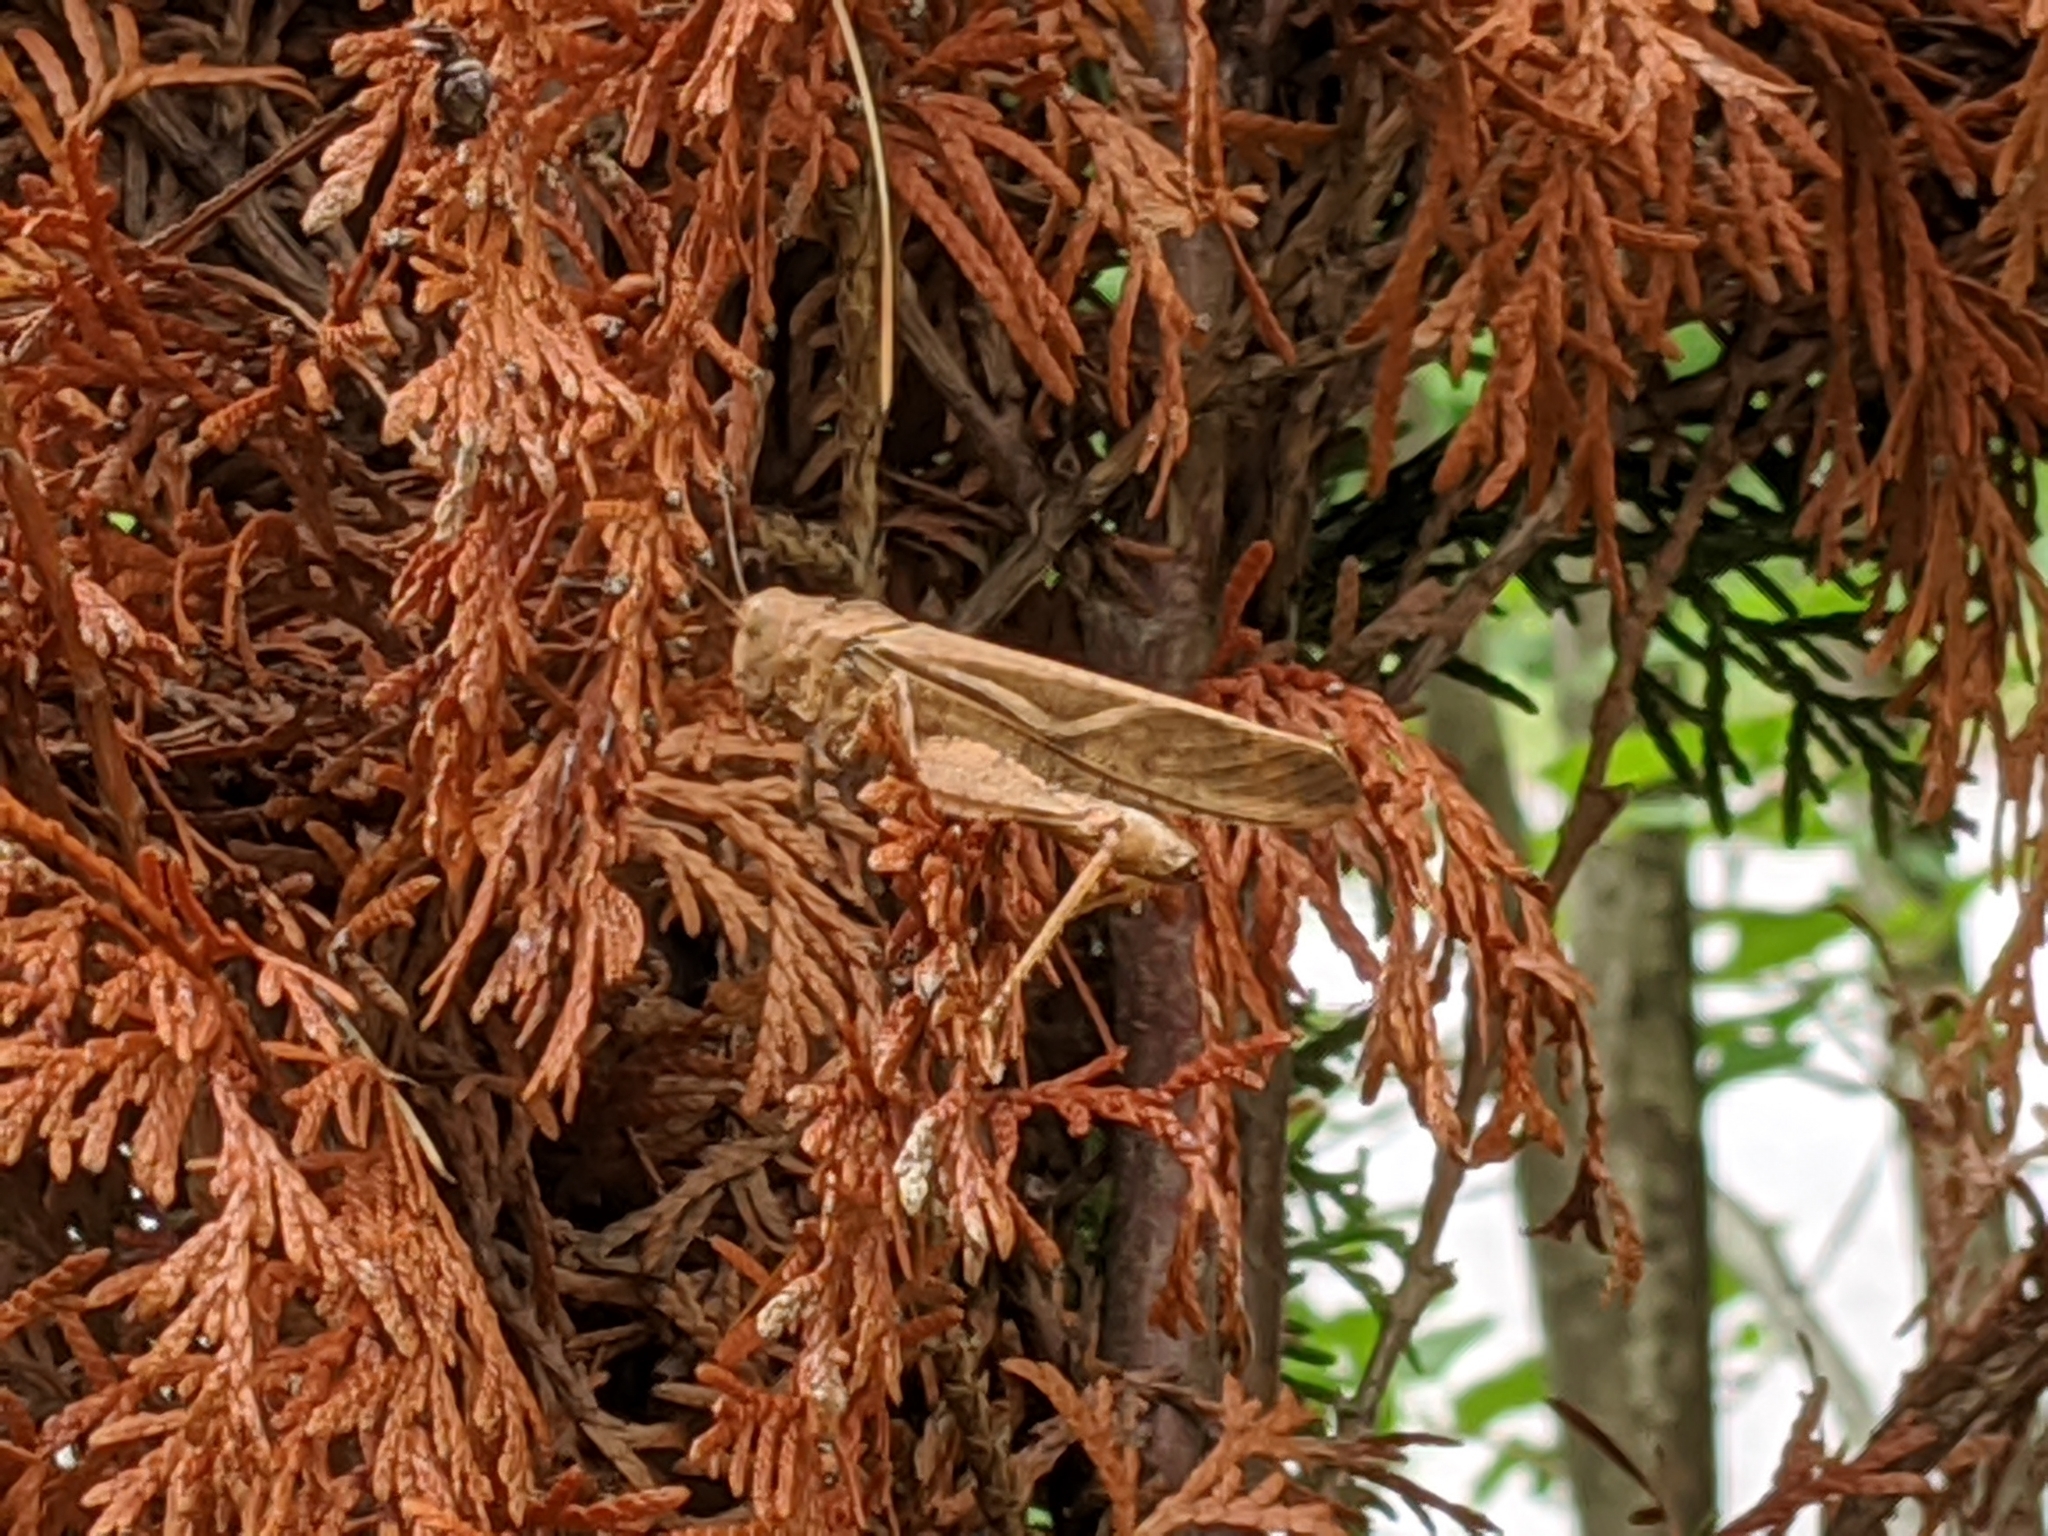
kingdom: Animalia
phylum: Arthropoda
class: Insecta
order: Orthoptera
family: Acrididae
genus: Dissosteira
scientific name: Dissosteira carolina
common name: Carolina grasshopper
